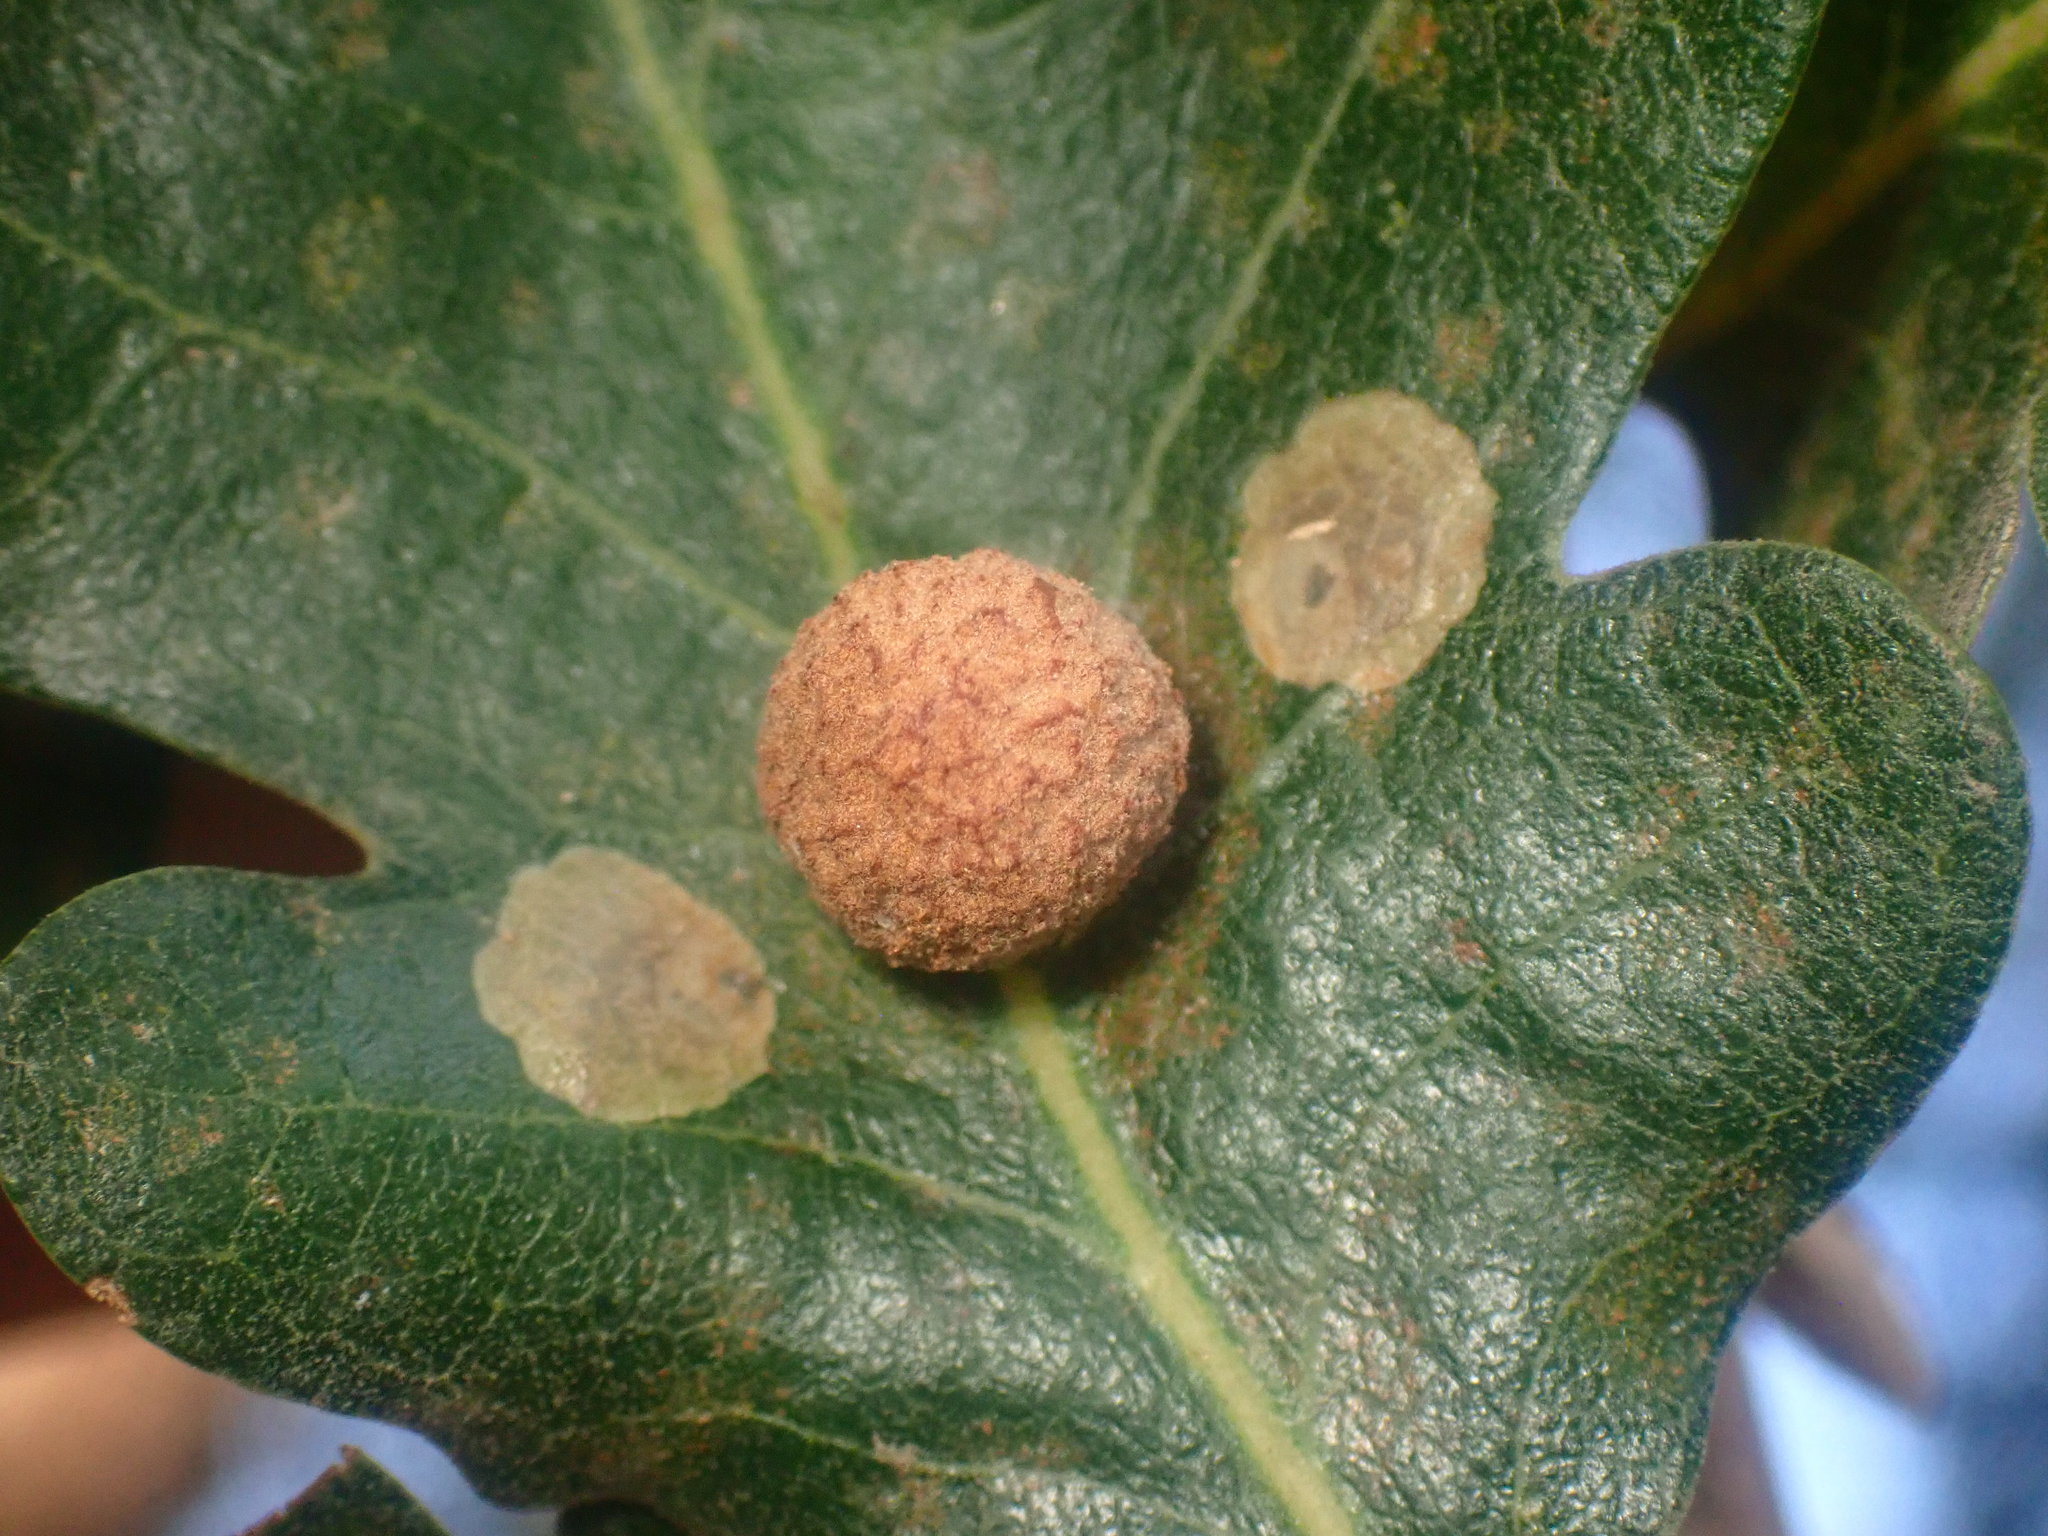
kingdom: Animalia
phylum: Arthropoda
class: Insecta
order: Hymenoptera
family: Cynipidae
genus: Cynips
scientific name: Cynips conspicua
